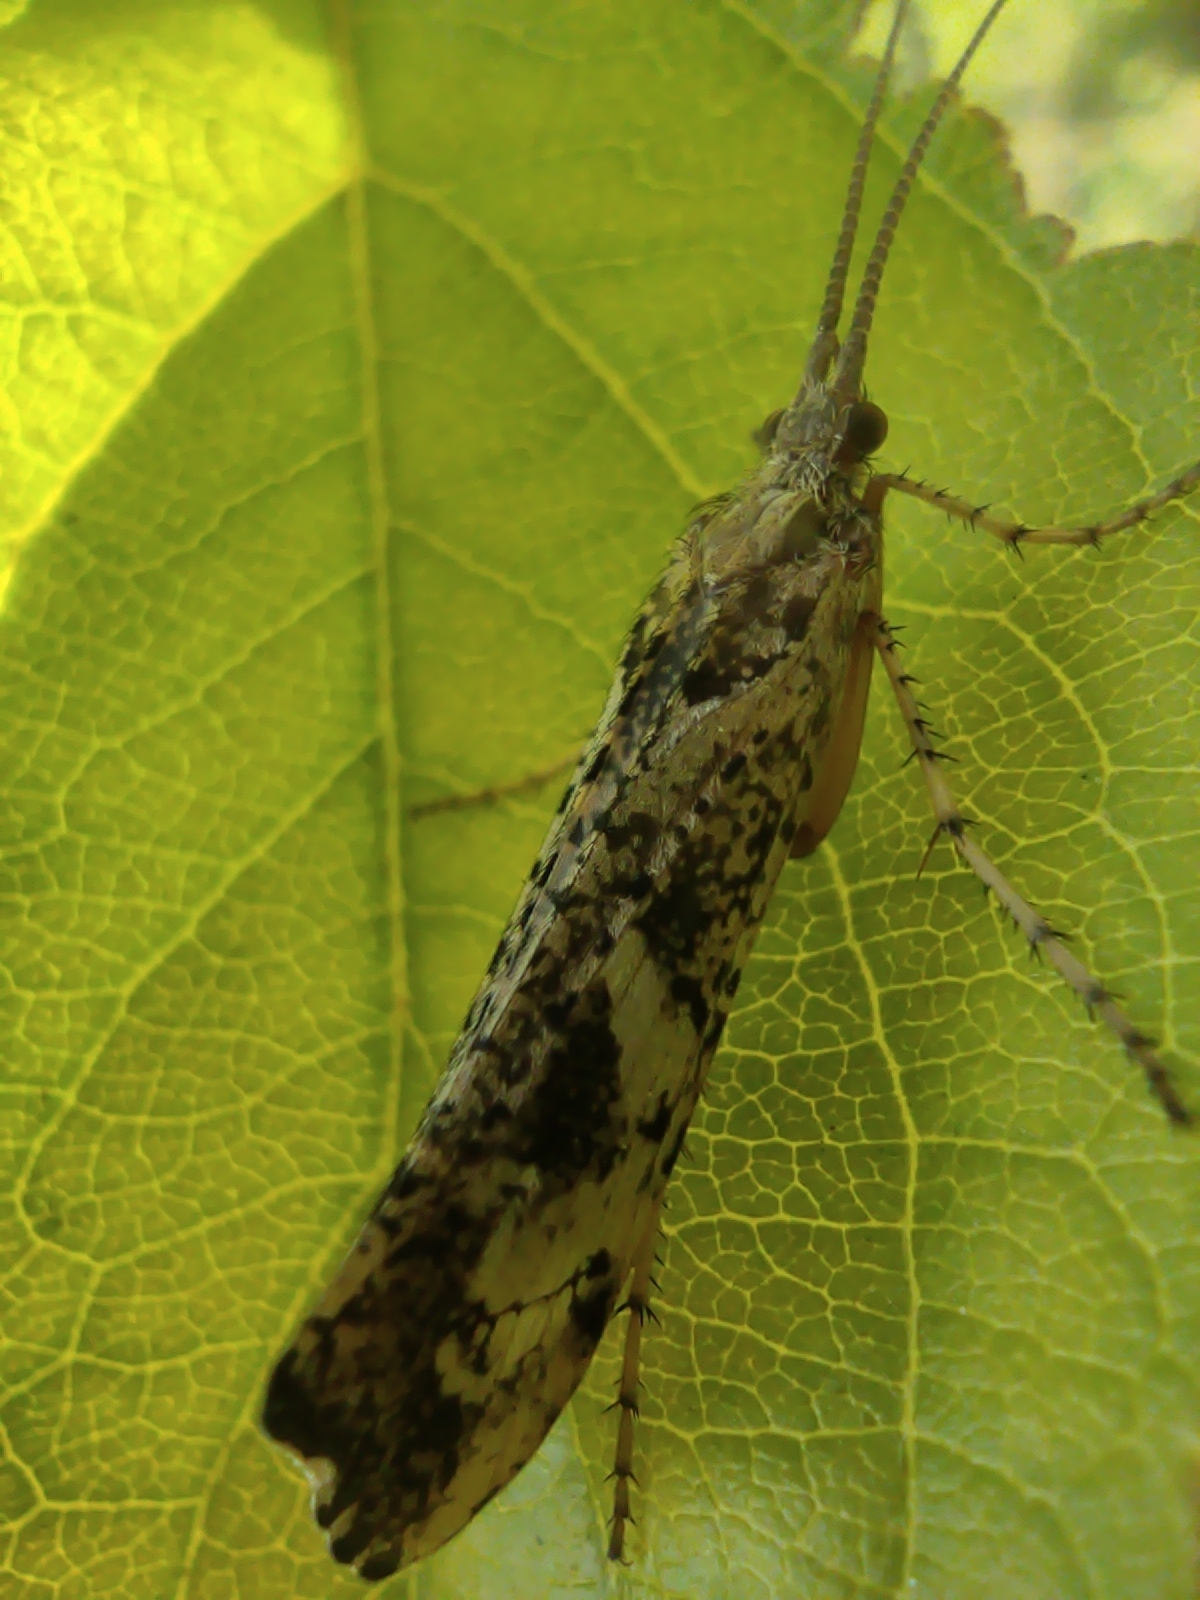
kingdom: Animalia
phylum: Arthropoda
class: Insecta
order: Trichoptera
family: Limnephilidae
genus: Glyphotaelius
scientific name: Glyphotaelius pellucidus
